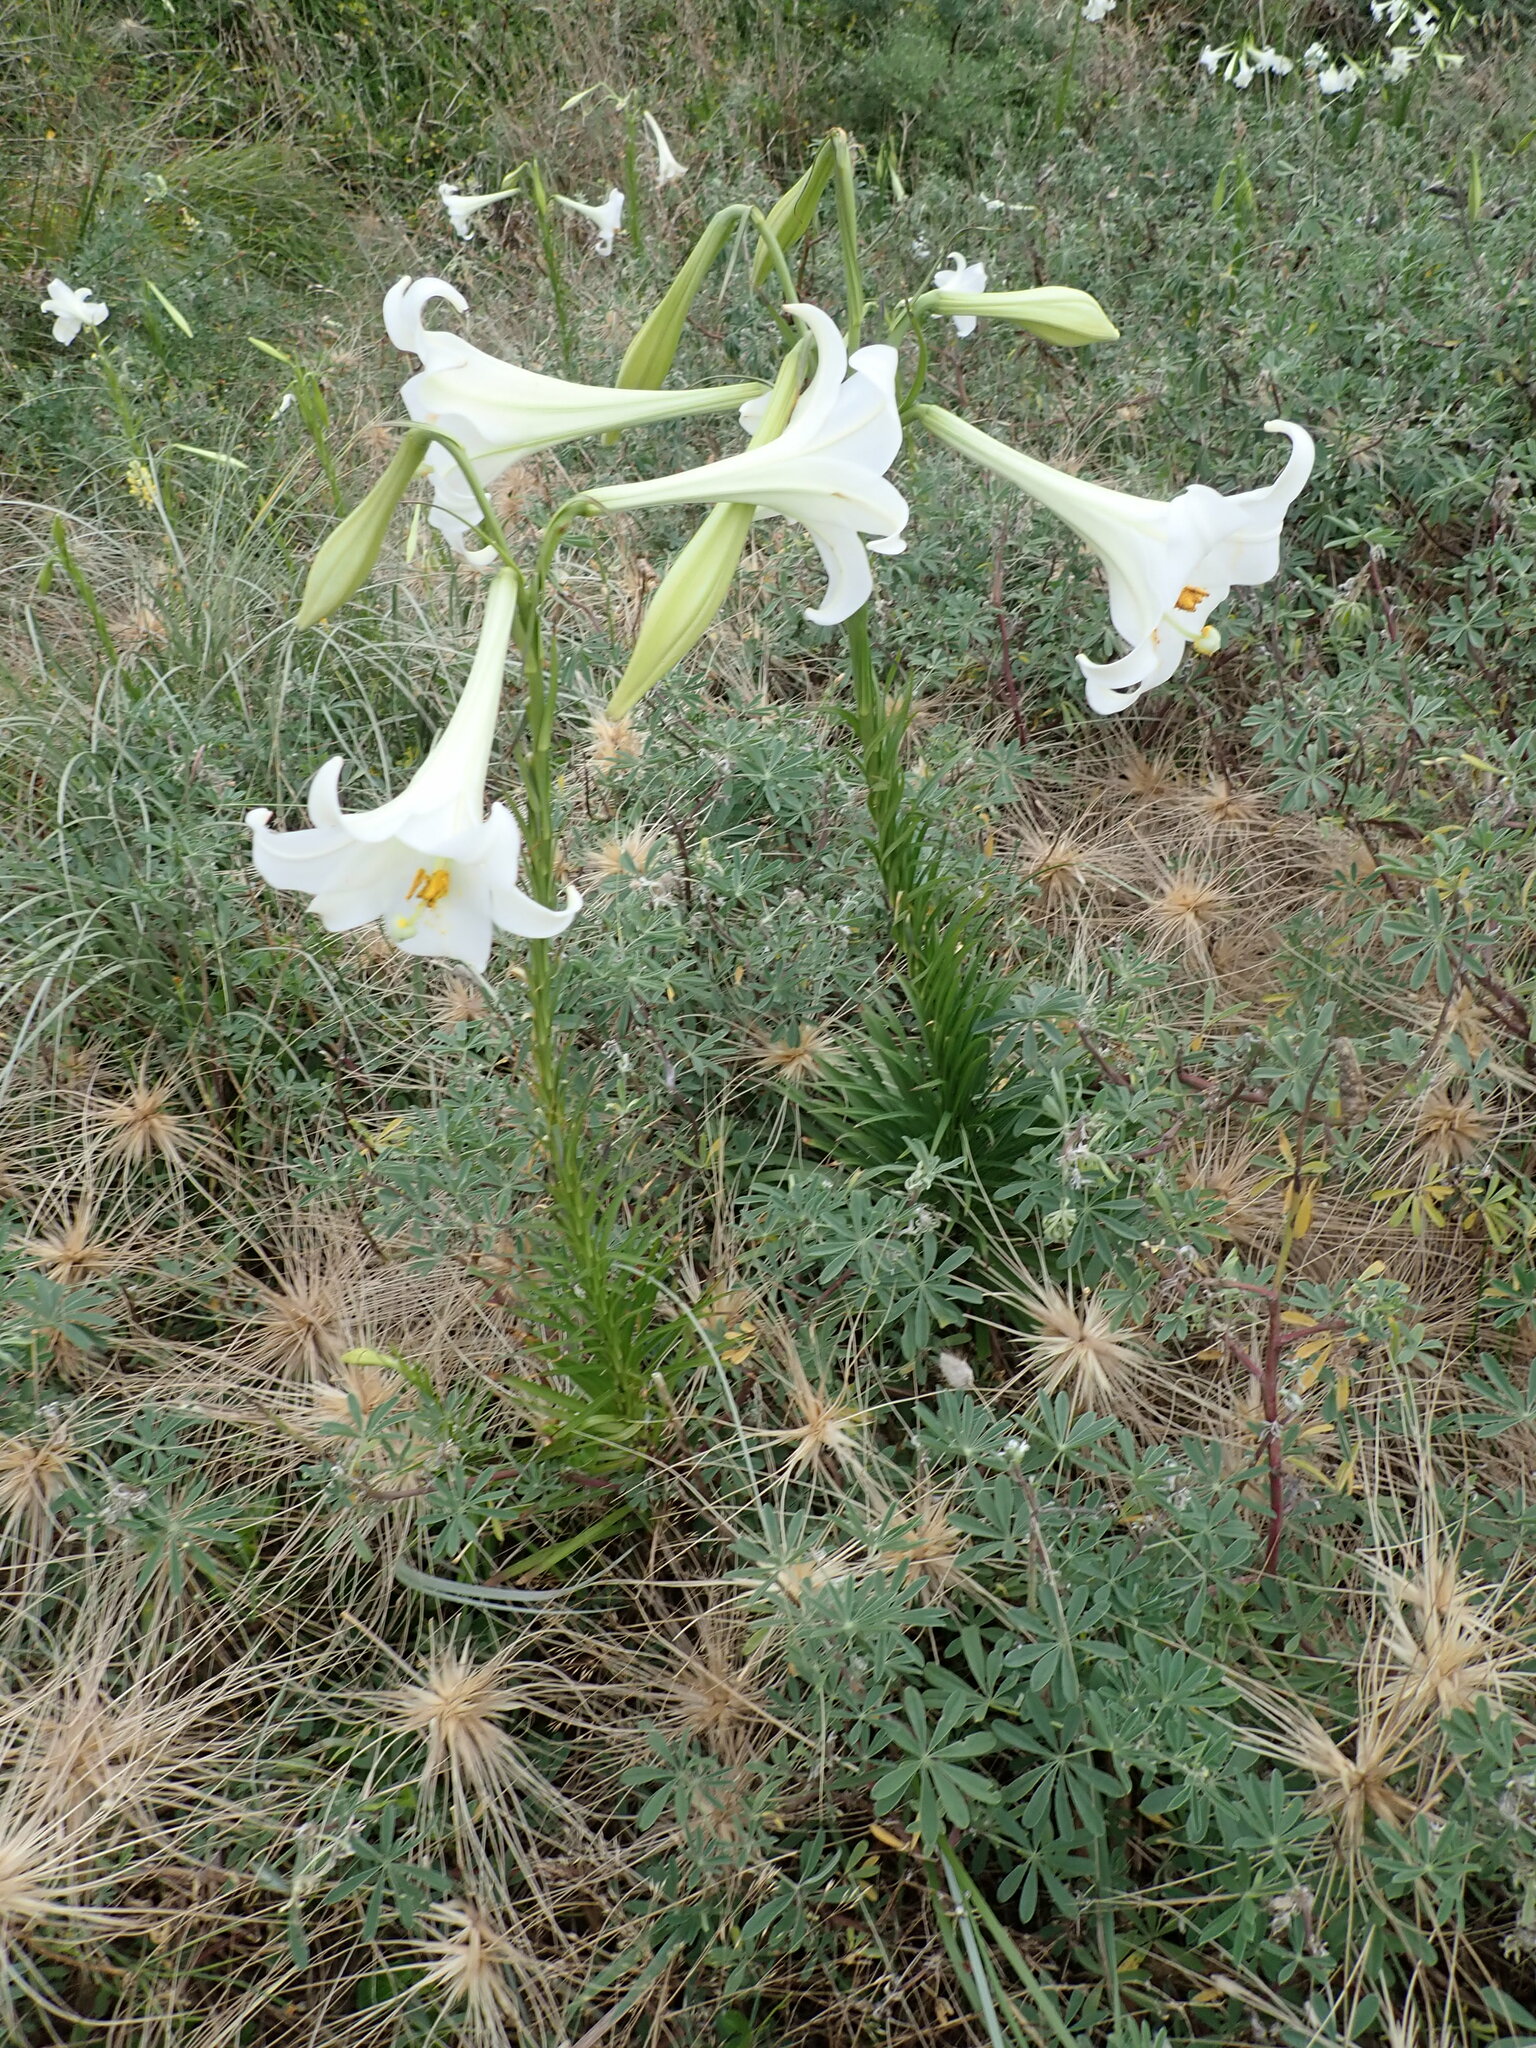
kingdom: Plantae
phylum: Tracheophyta
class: Liliopsida
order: Liliales
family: Liliaceae
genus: Lilium
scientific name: Lilium formosanum
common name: Formosa lily
